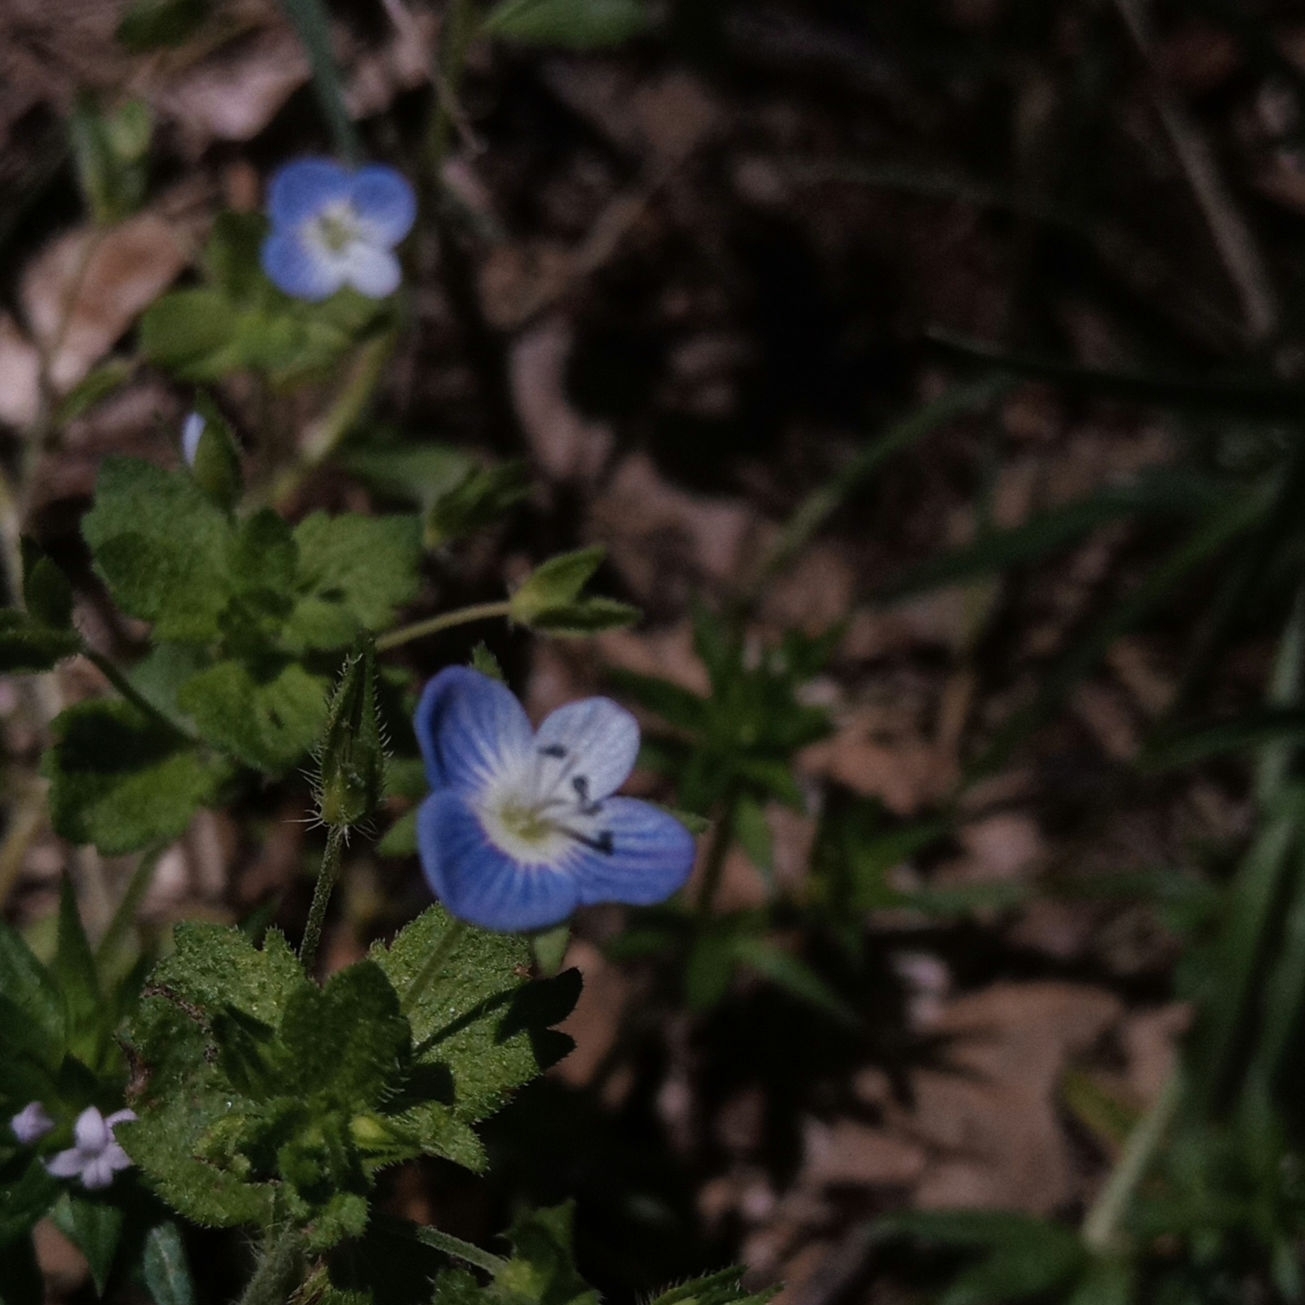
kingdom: Plantae
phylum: Tracheophyta
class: Magnoliopsida
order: Lamiales
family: Plantaginaceae
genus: Veronica
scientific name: Veronica persica
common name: Common field-speedwell
